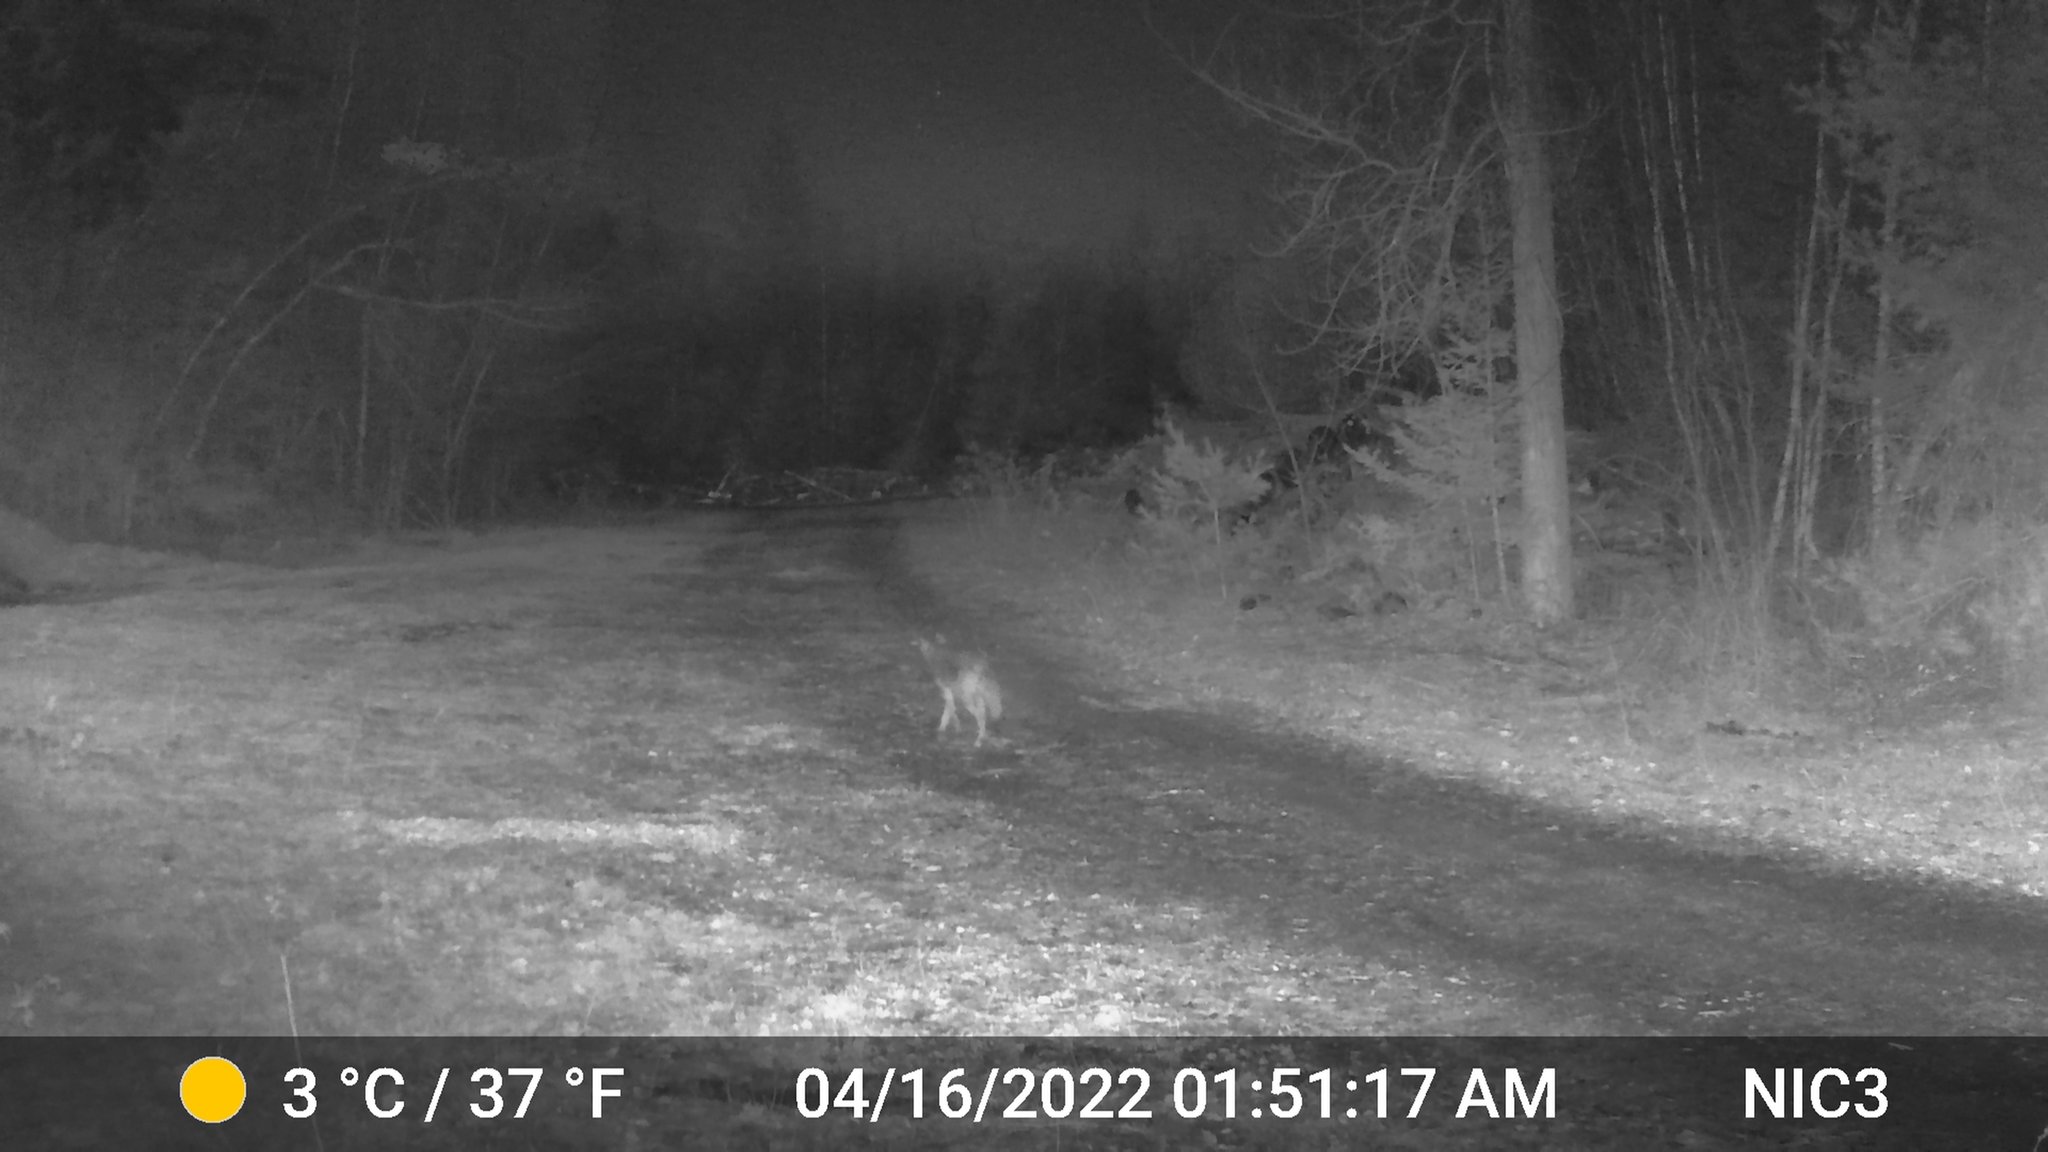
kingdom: Animalia
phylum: Chordata
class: Mammalia
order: Carnivora
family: Canidae
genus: Canis
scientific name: Canis latrans
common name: Coyote
